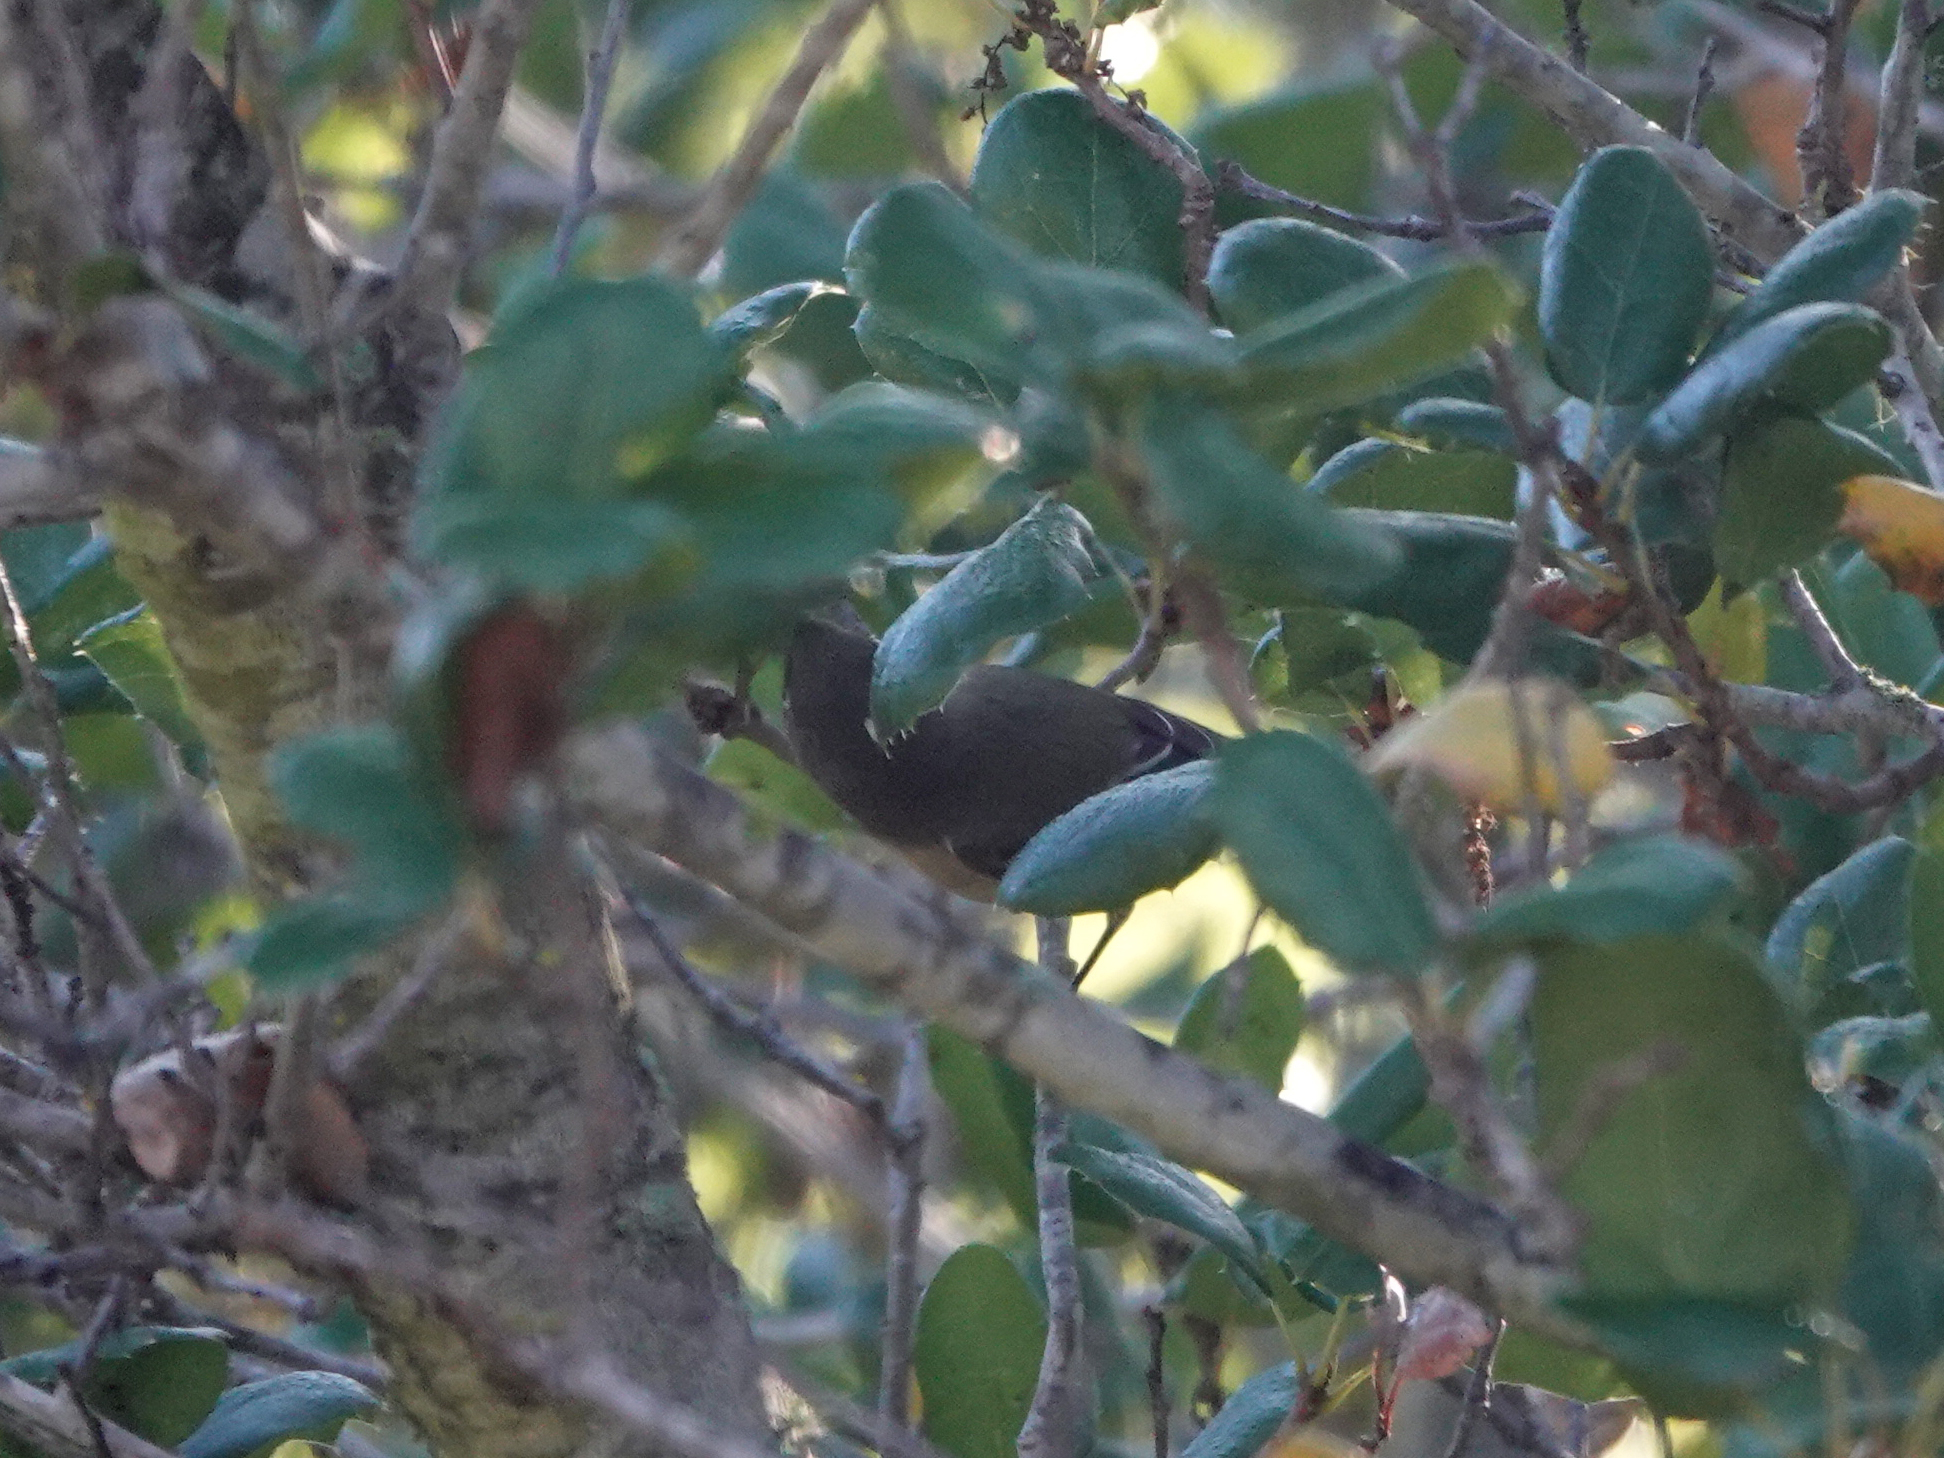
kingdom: Animalia
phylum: Chordata
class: Aves
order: Passeriformes
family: Regulidae
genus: Regulus
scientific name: Regulus calendula
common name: Ruby-crowned kinglet
